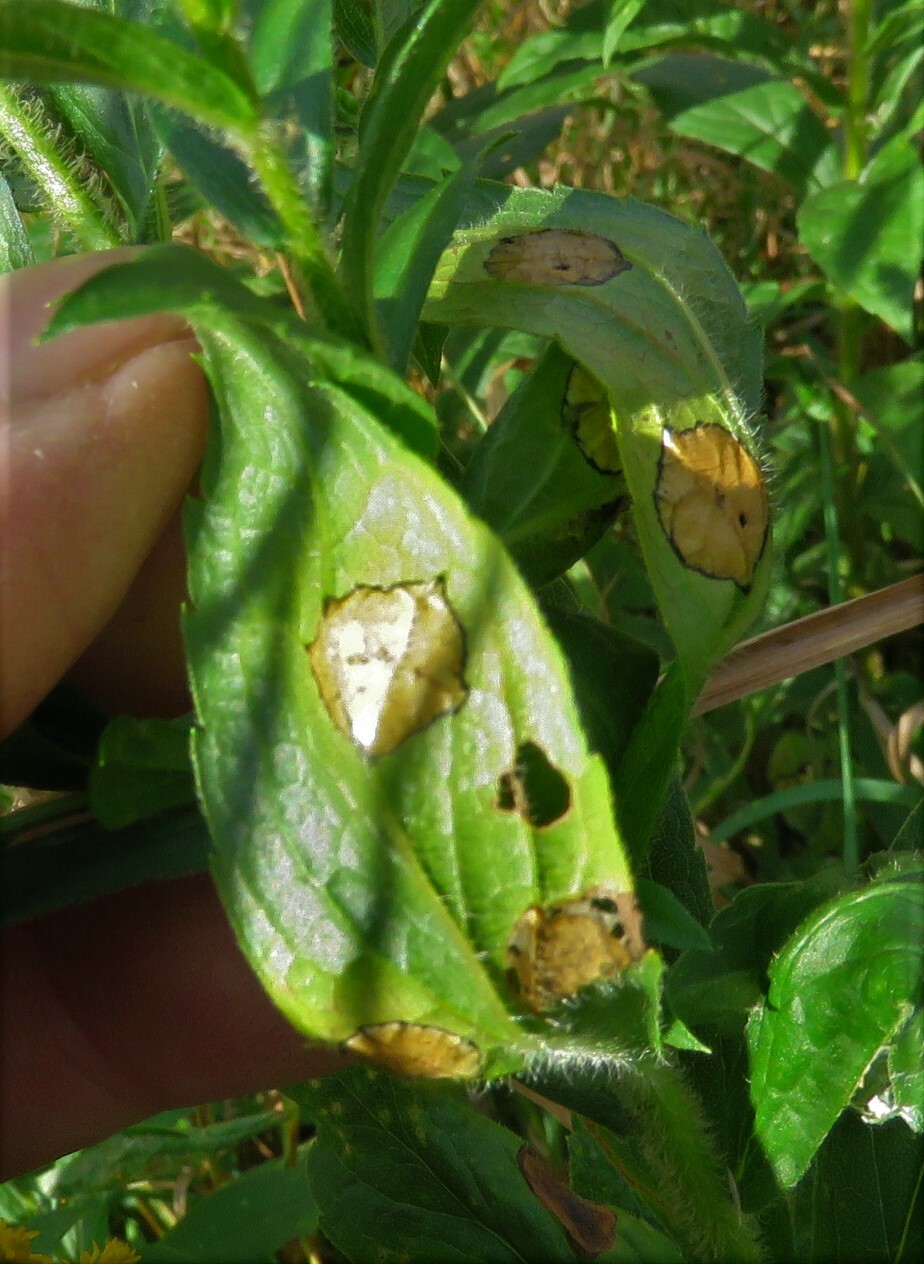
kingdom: Animalia
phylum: Arthropoda
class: Insecta
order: Diptera
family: Cecidomyiidae
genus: Asteromyia
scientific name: Asteromyia carbonifera
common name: Carbonifera goldenrod gall midge
